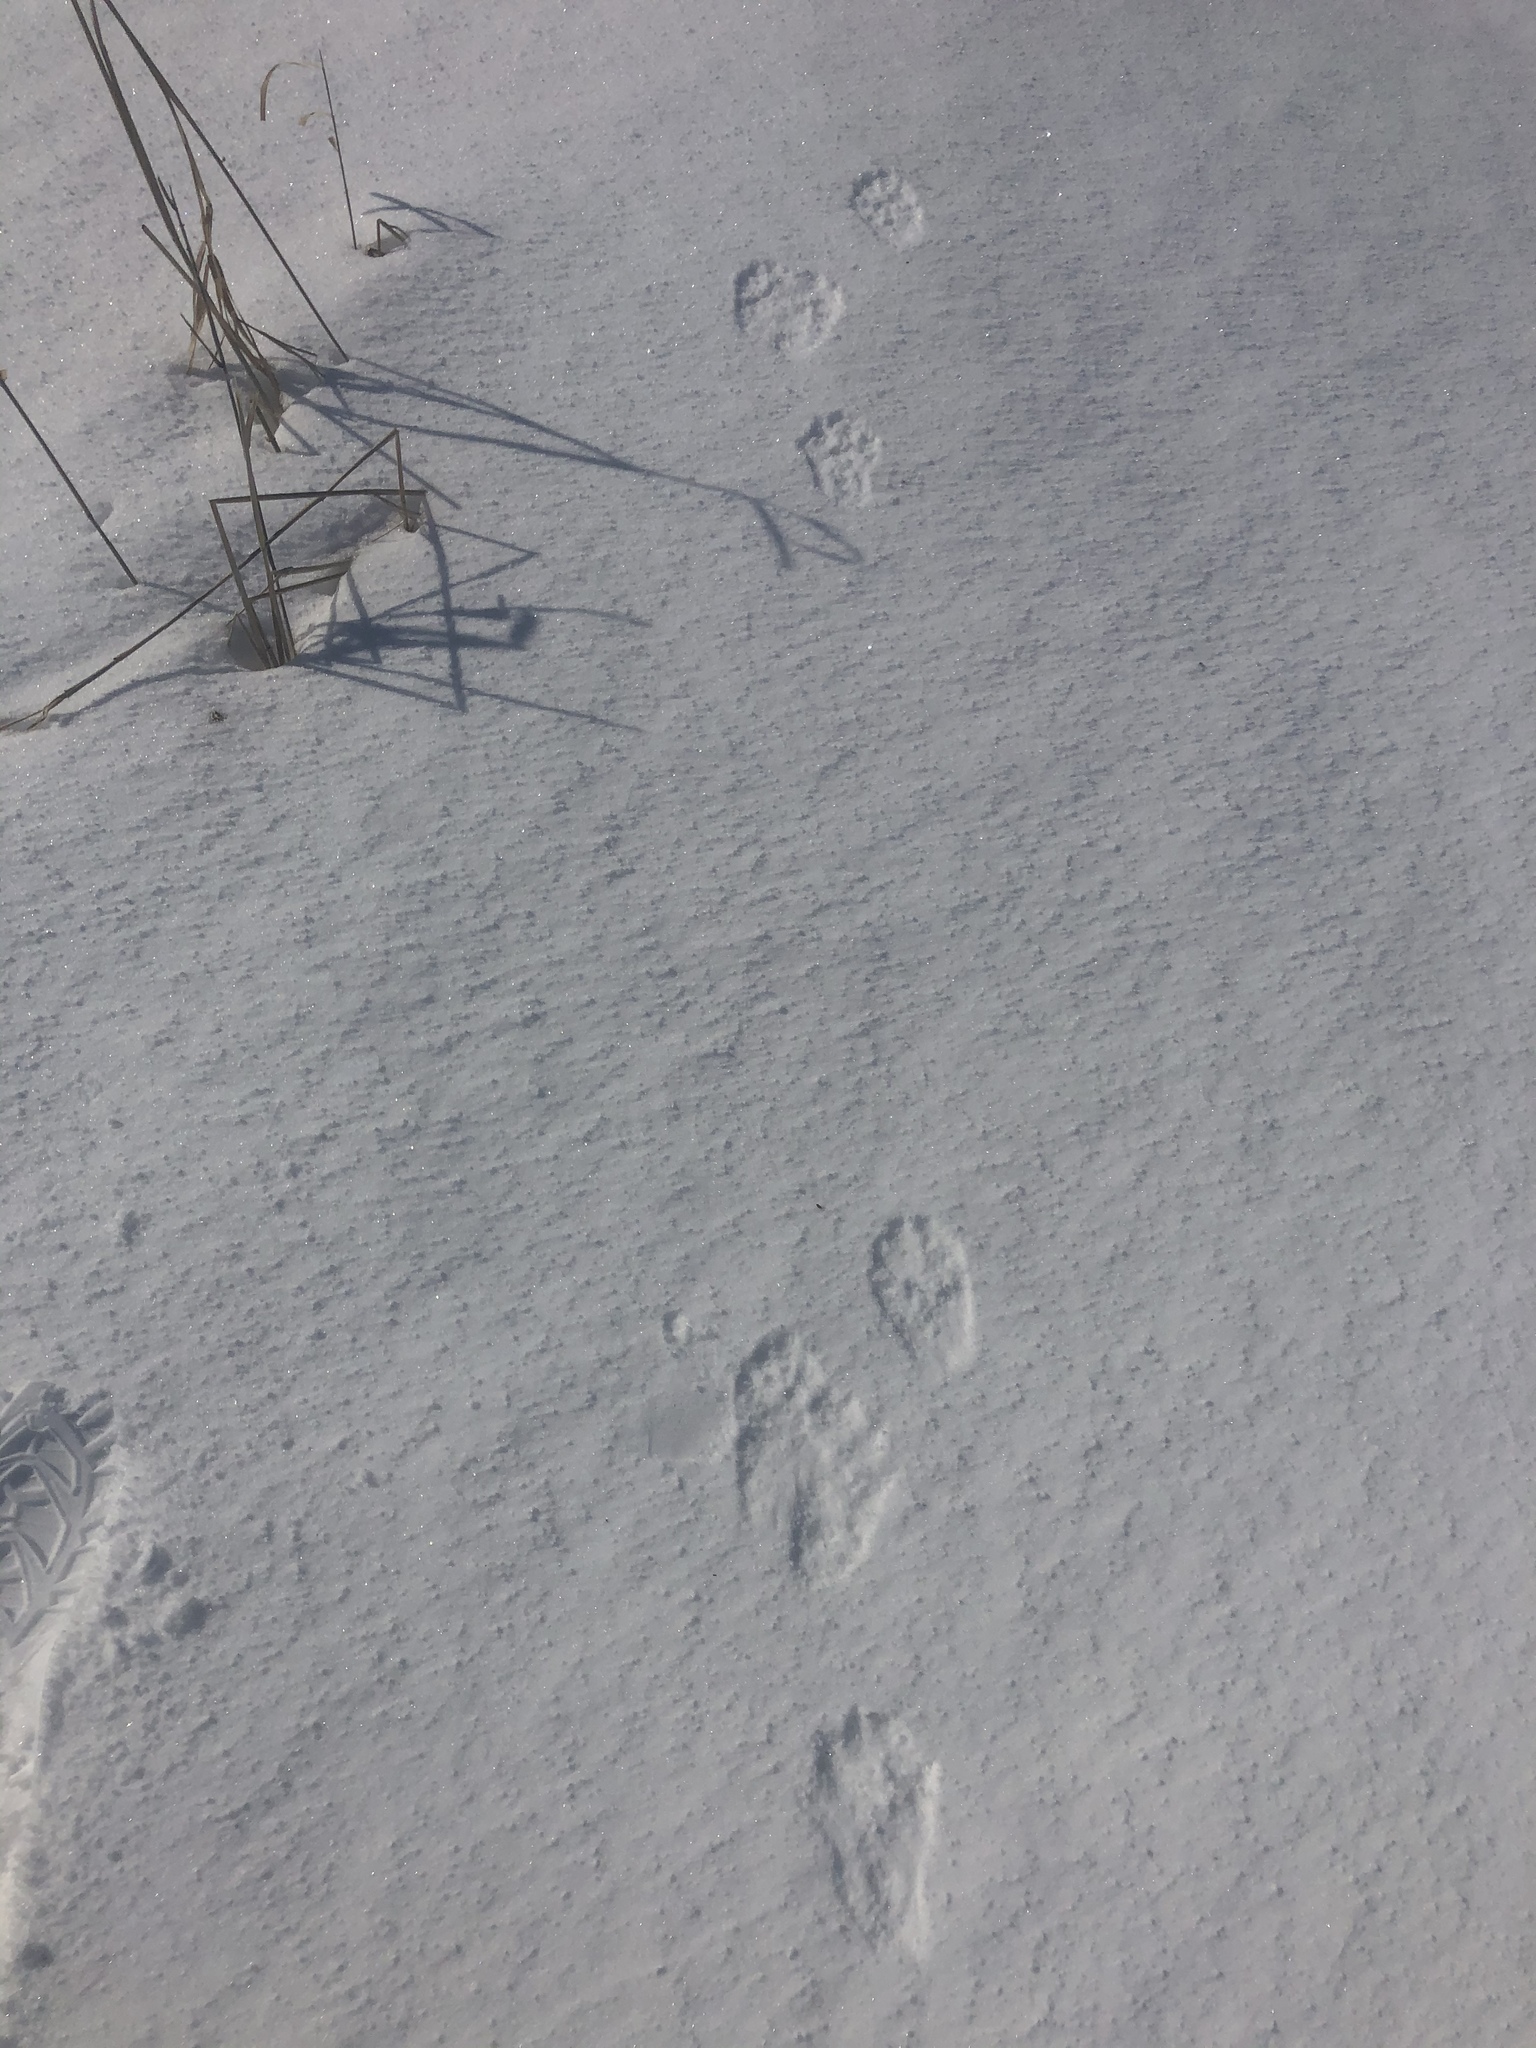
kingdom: Animalia
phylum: Chordata
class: Mammalia
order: Carnivora
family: Mustelidae
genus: Pekania
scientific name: Pekania pennanti
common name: Fisher
